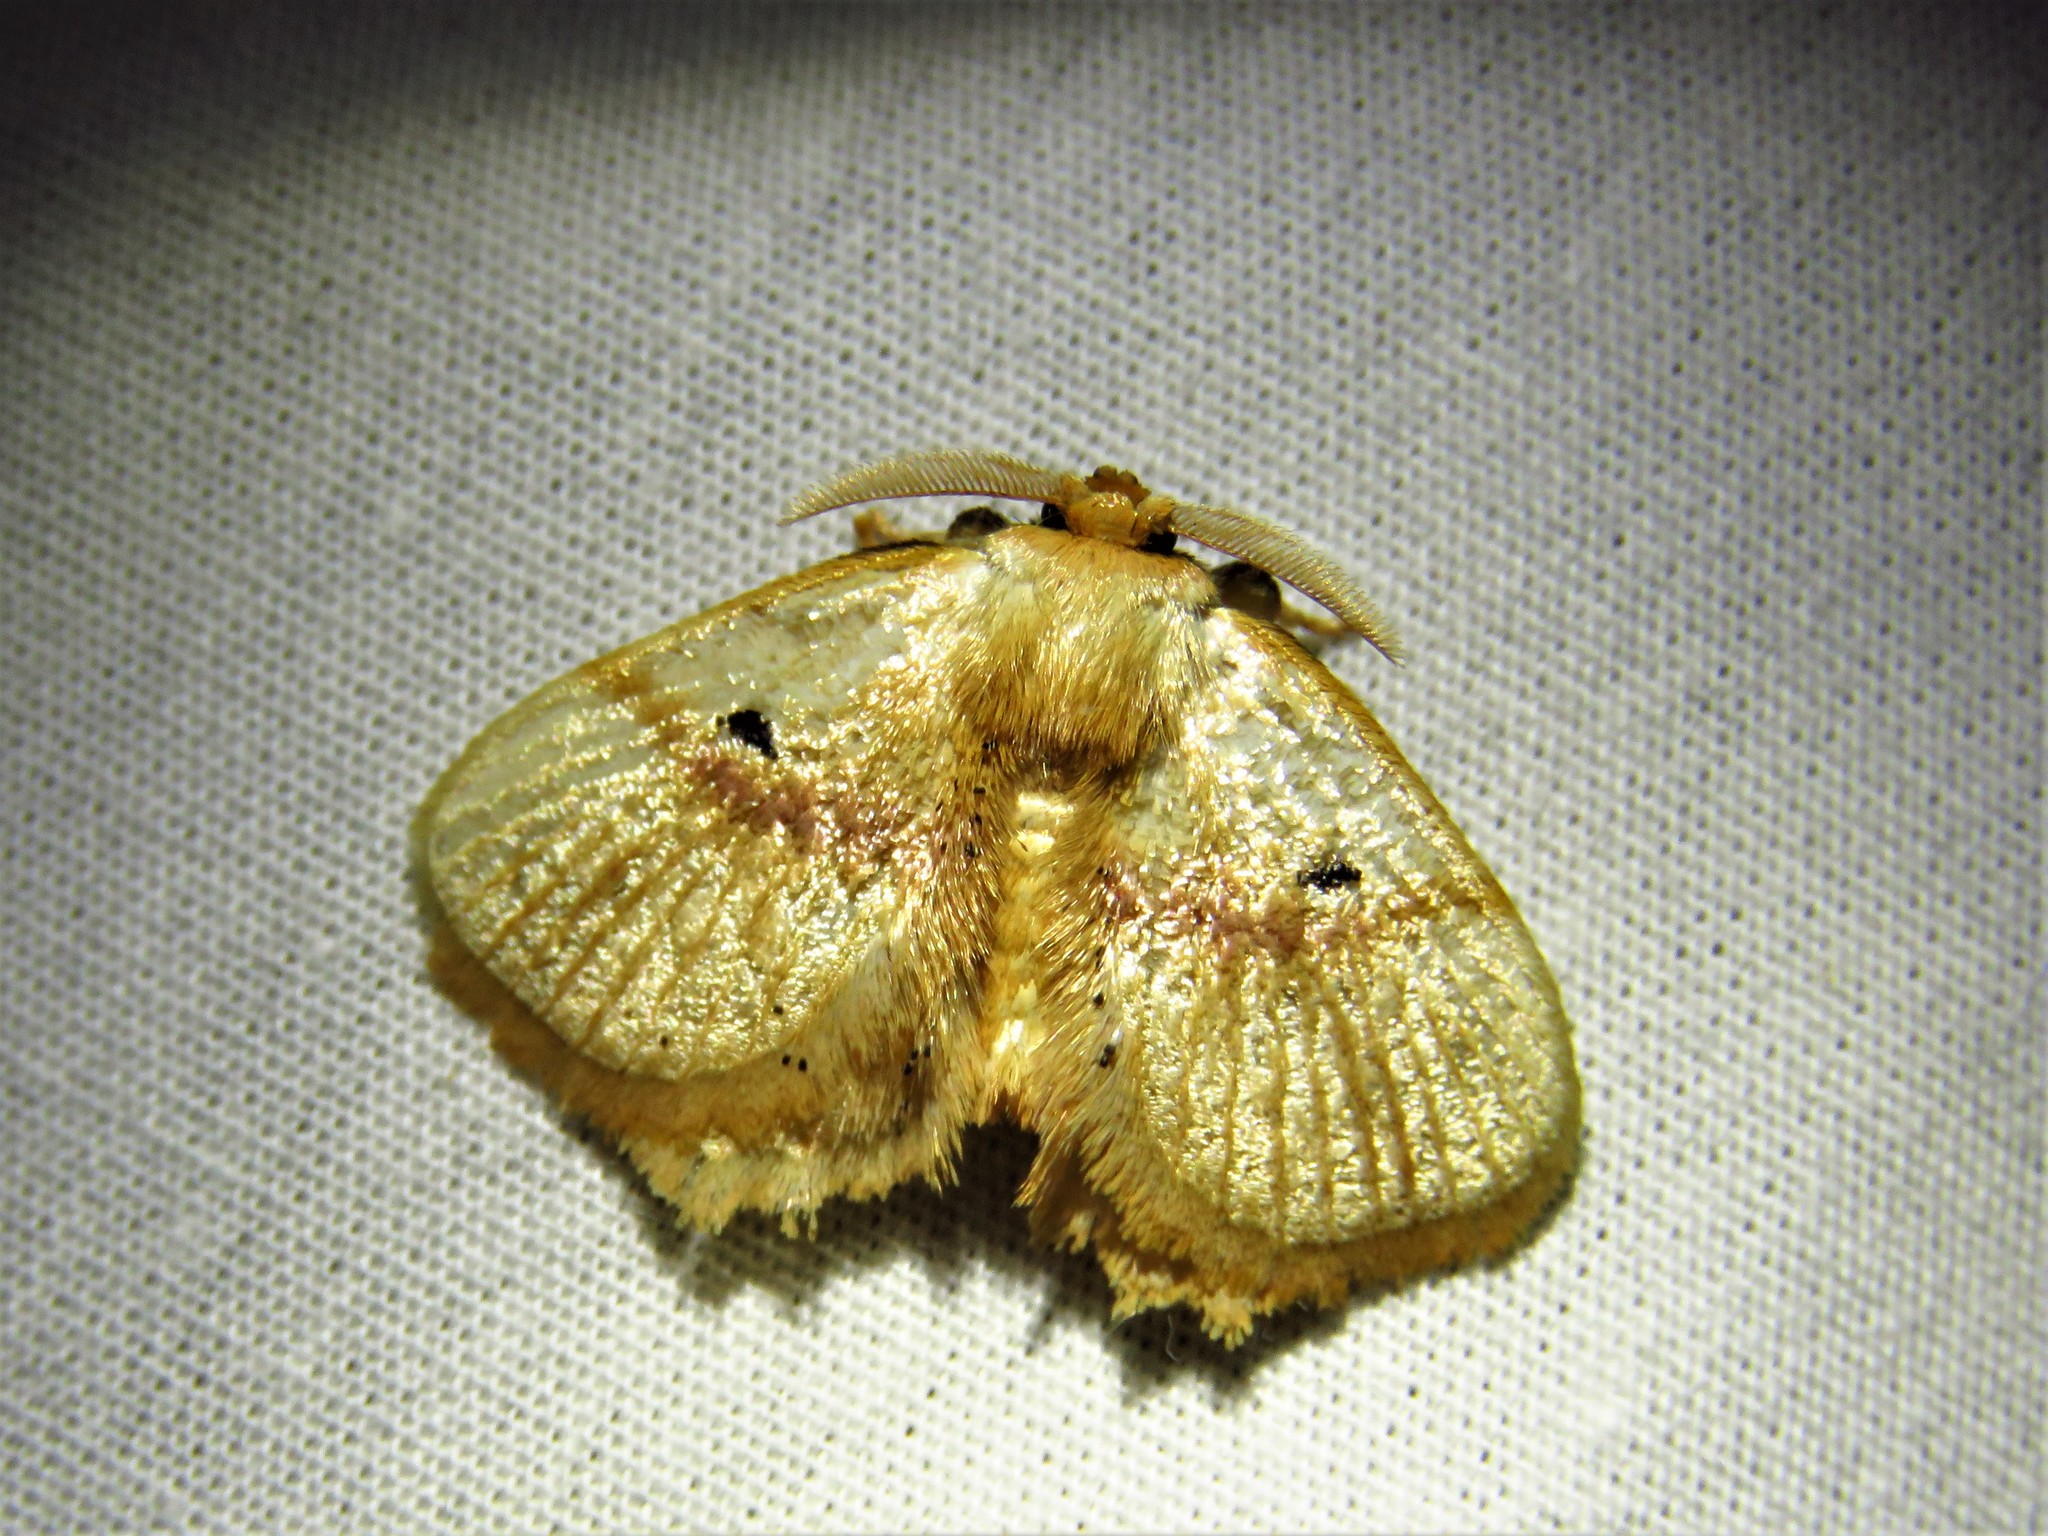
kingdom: Animalia
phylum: Arthropoda
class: Insecta
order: Lepidoptera
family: Limacodidae
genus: Chrysectropa
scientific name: Chrysectropa roseofasciata
